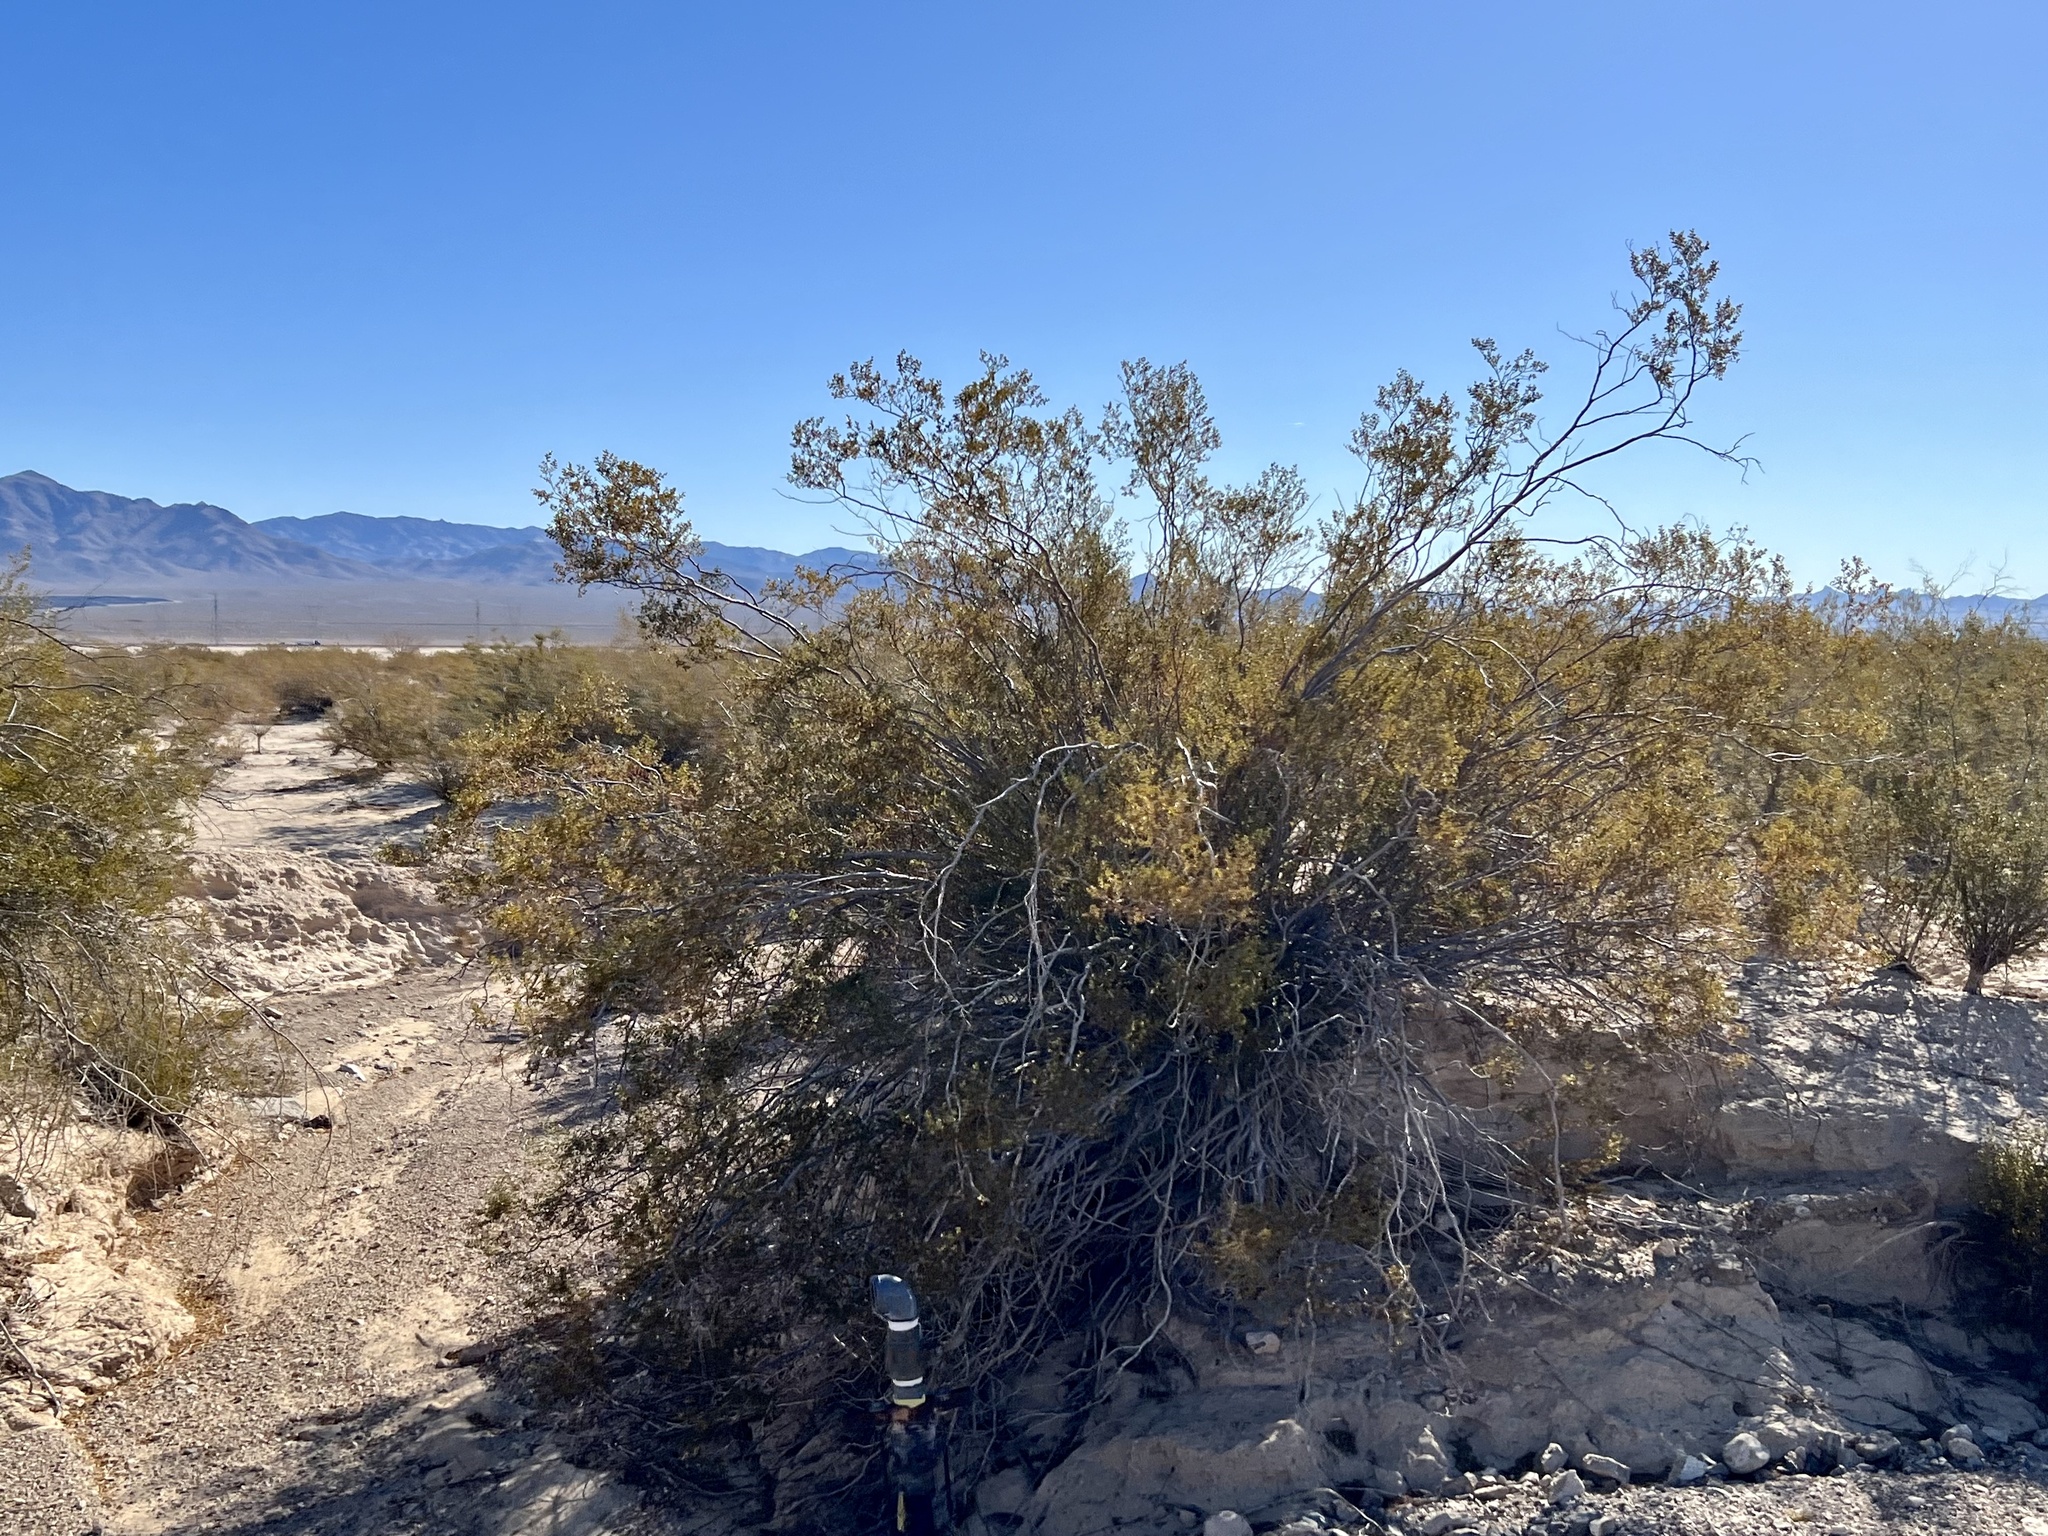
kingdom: Plantae
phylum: Tracheophyta
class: Magnoliopsida
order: Zygophyllales
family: Zygophyllaceae
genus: Larrea
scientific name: Larrea tridentata
